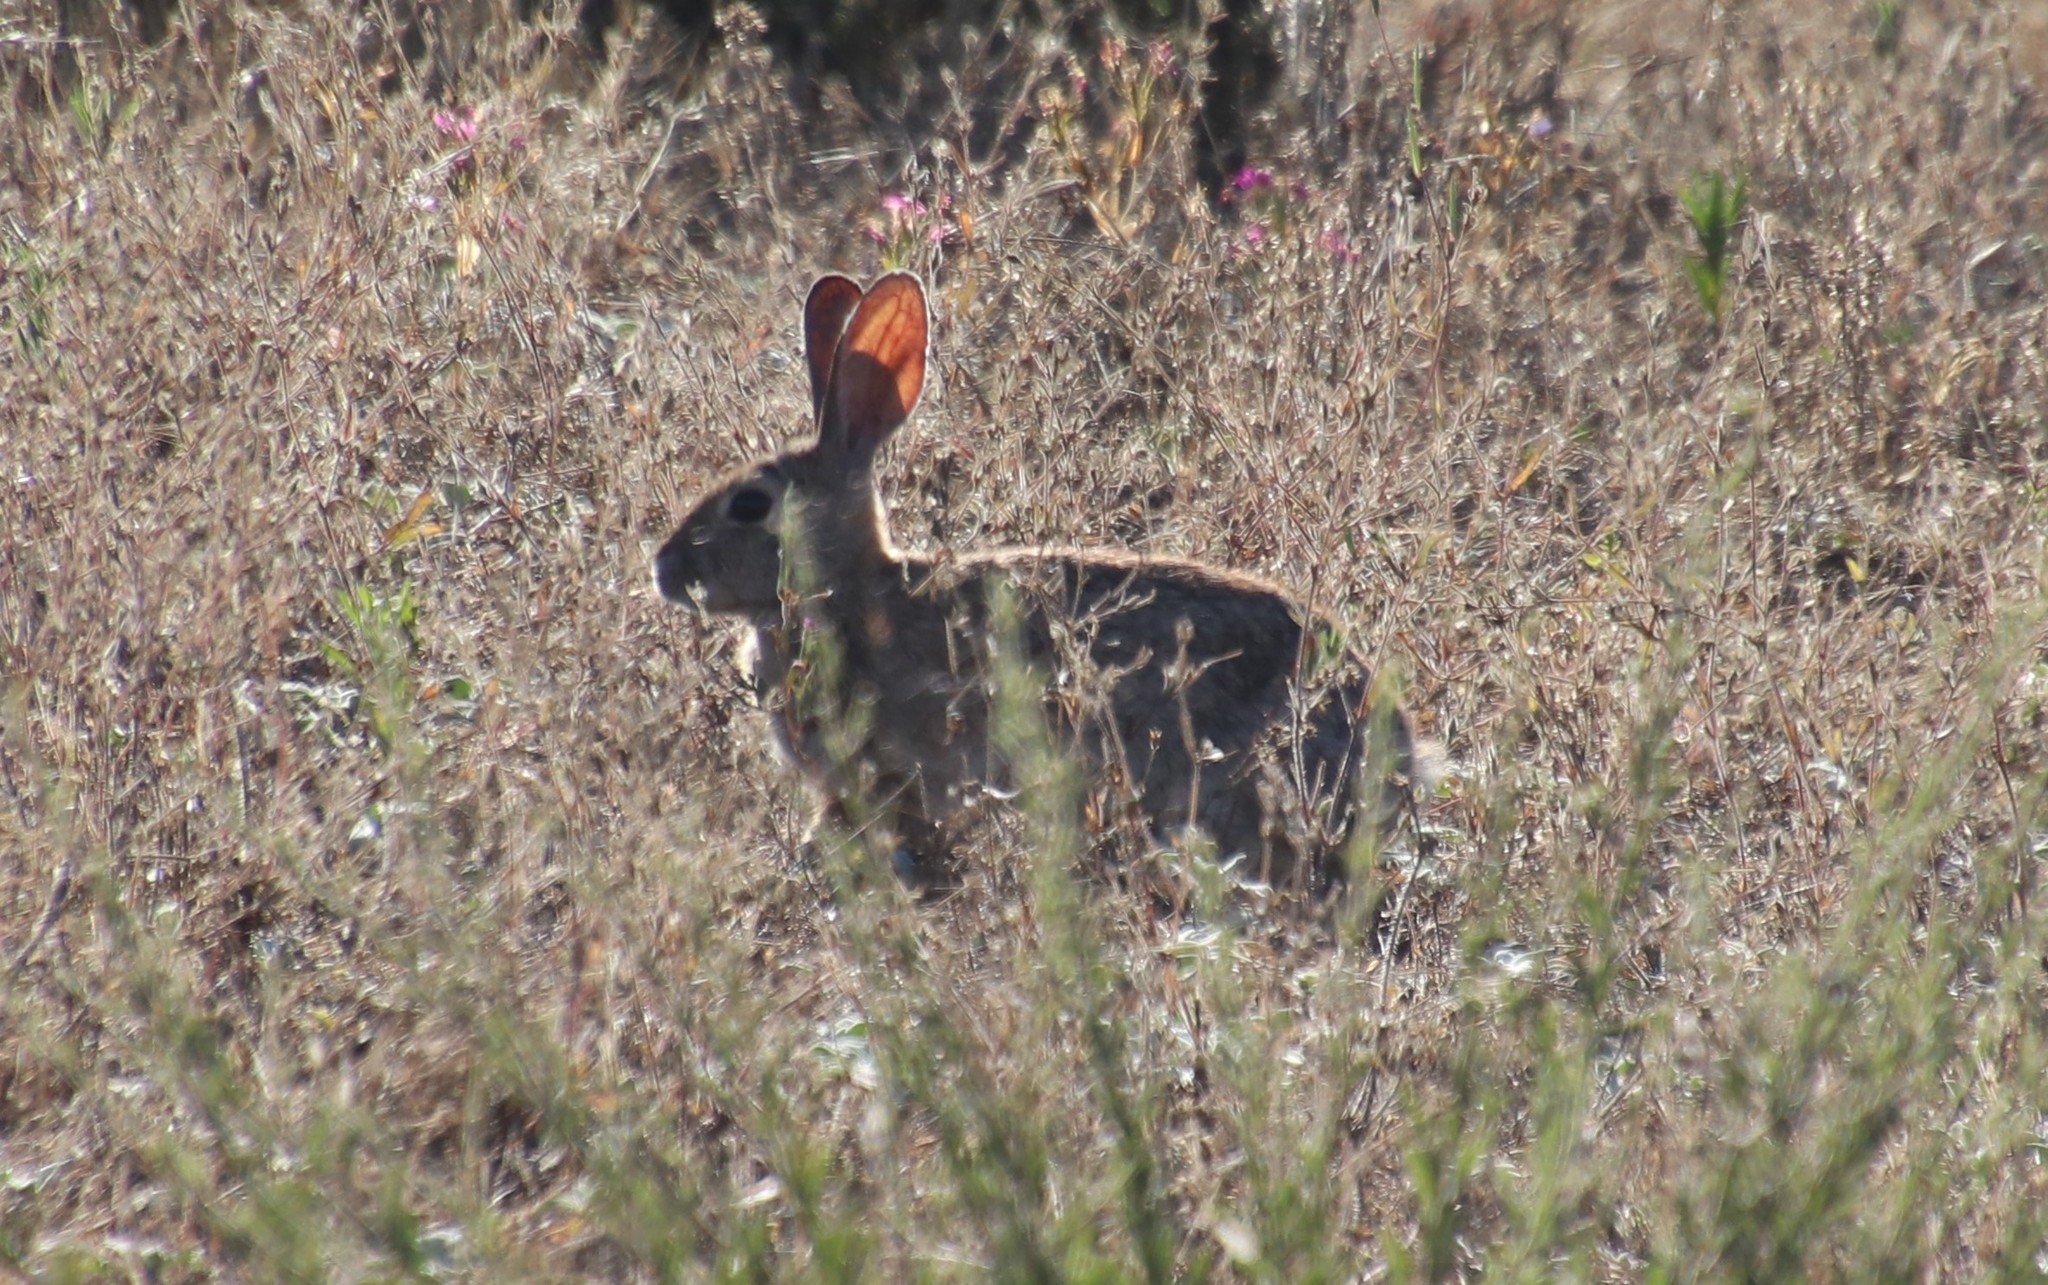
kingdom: Animalia
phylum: Chordata
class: Mammalia
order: Lagomorpha
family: Leporidae
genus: Sylvilagus
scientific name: Sylvilagus audubonii
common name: Desert cottontail
